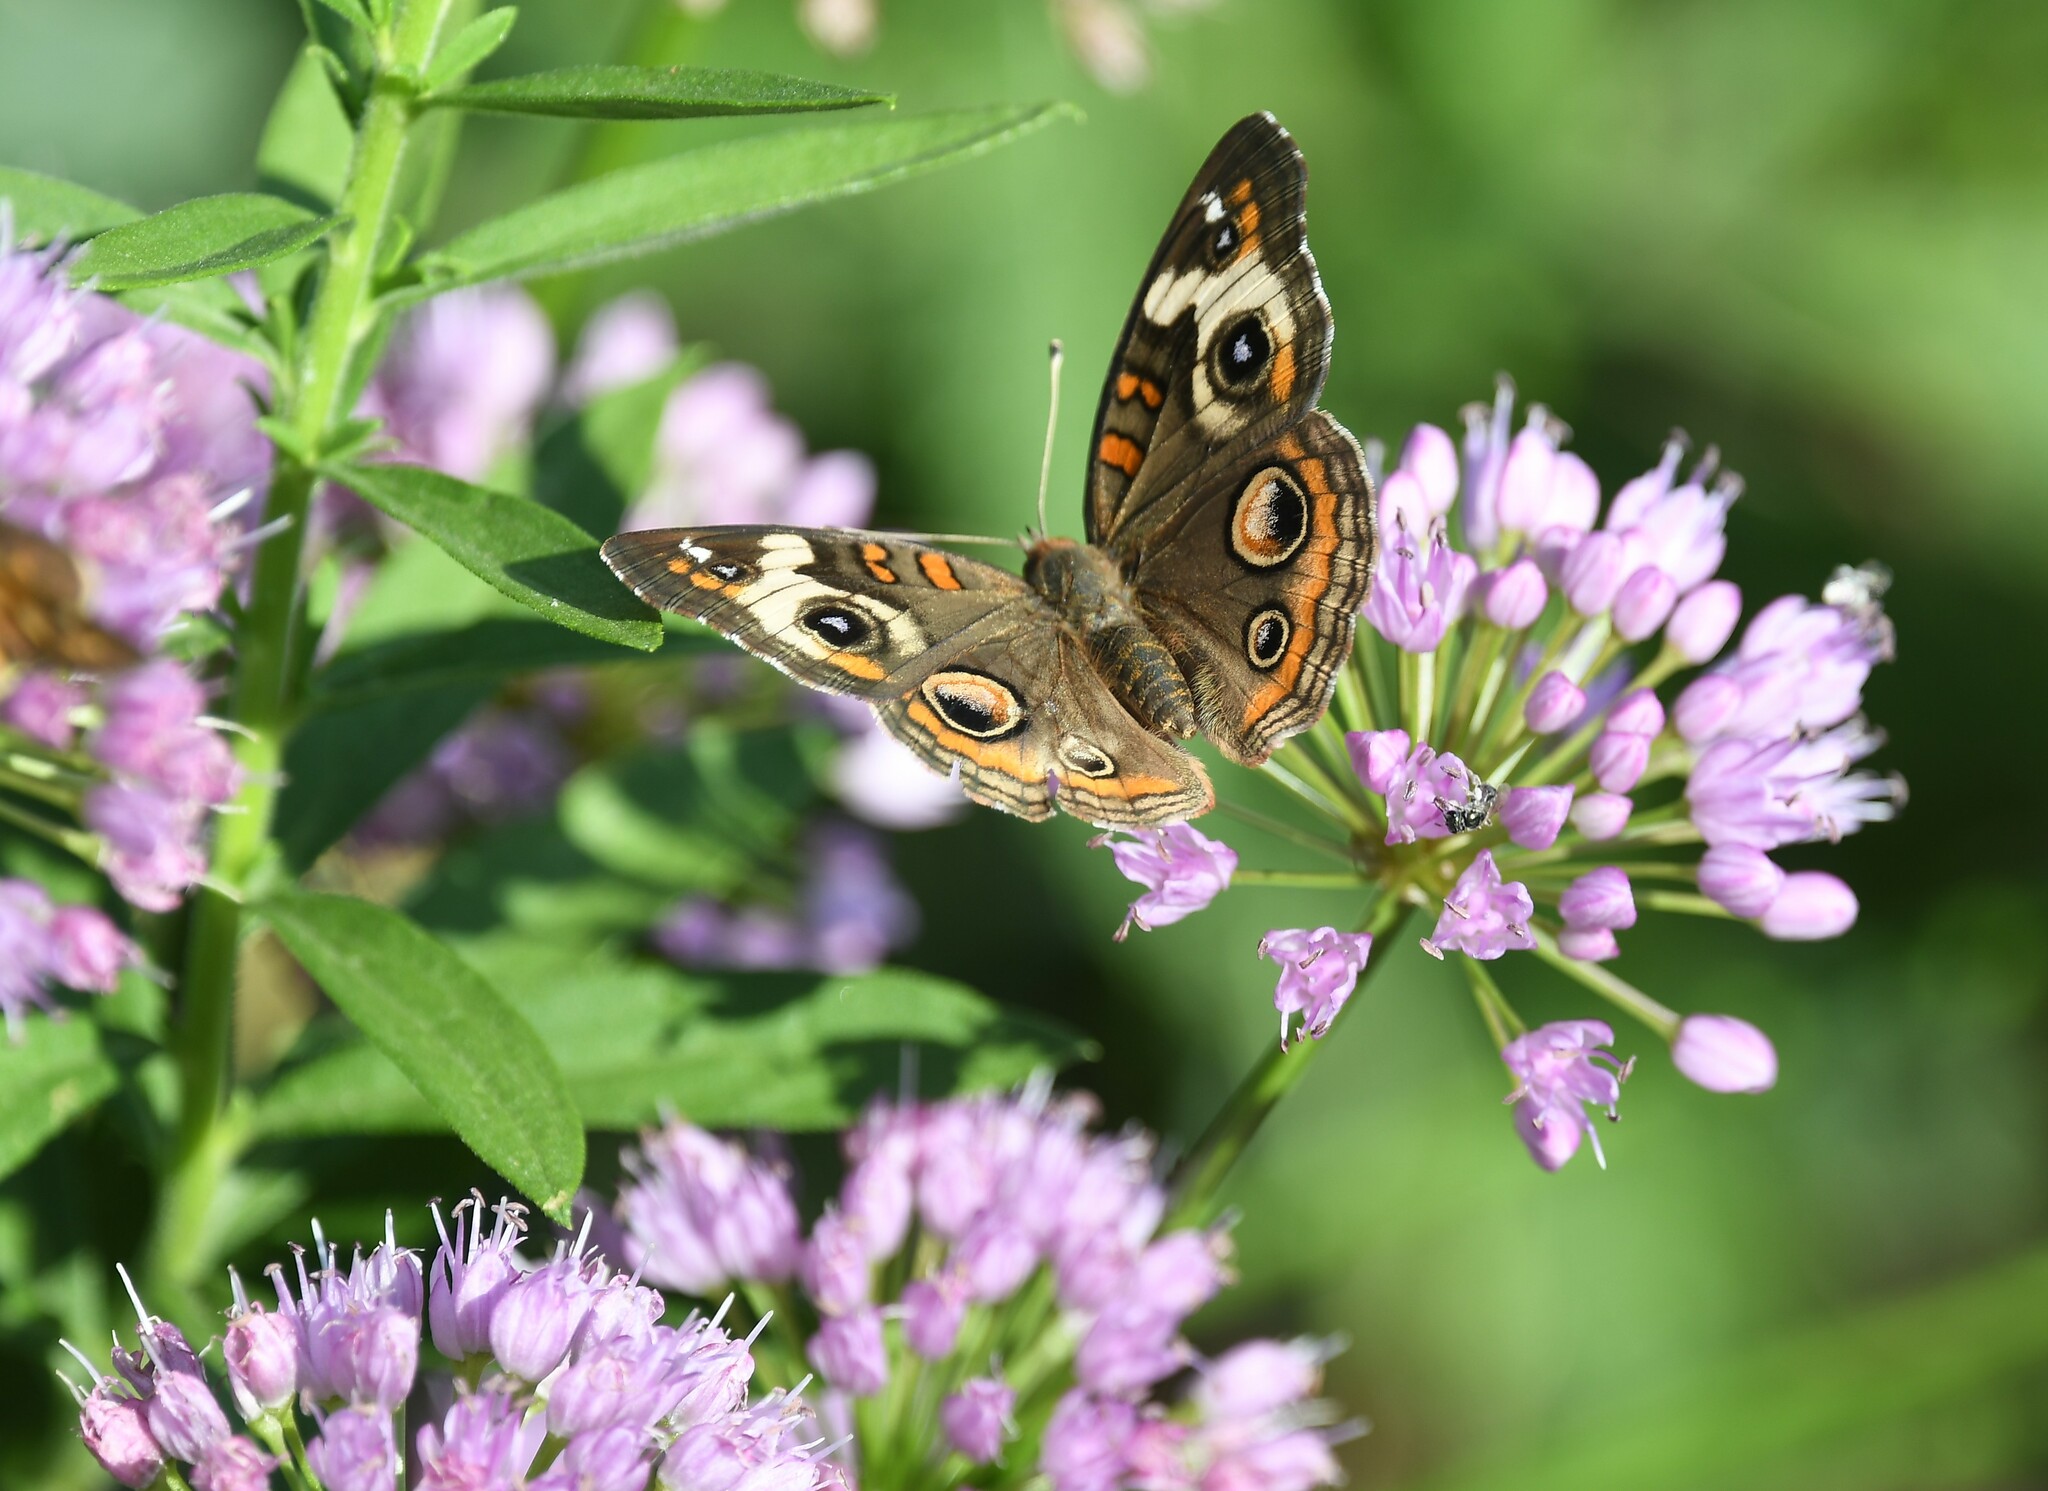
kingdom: Animalia
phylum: Arthropoda
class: Insecta
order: Lepidoptera
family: Nymphalidae
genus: Junonia
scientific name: Junonia coenia
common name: Common buckeye
